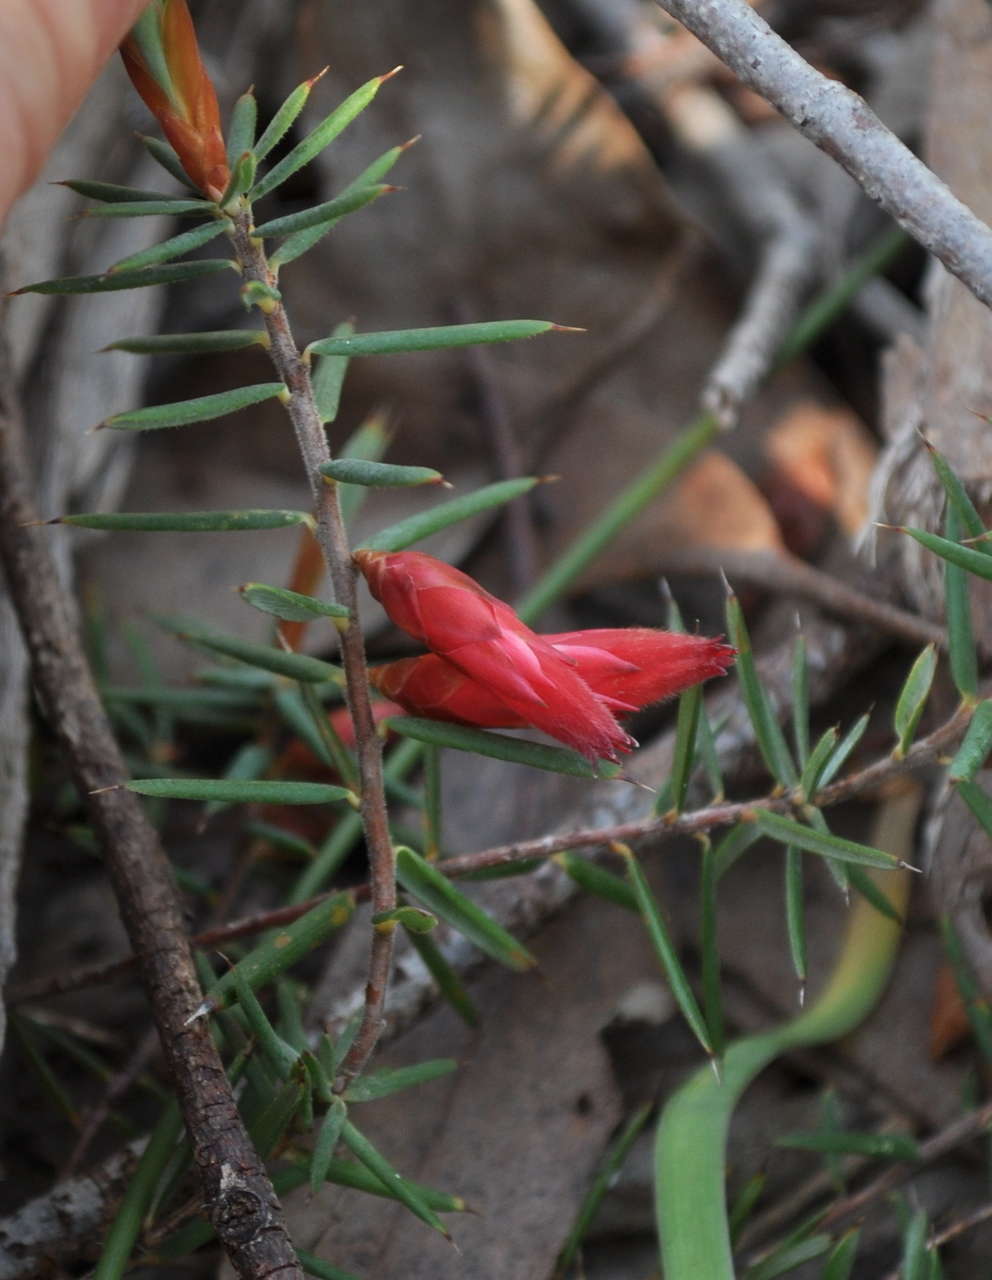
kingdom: Plantae
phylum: Tracheophyta
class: Magnoliopsida
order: Ericales
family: Ericaceae
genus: Stenanthera
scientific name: Stenanthera conostephioides
